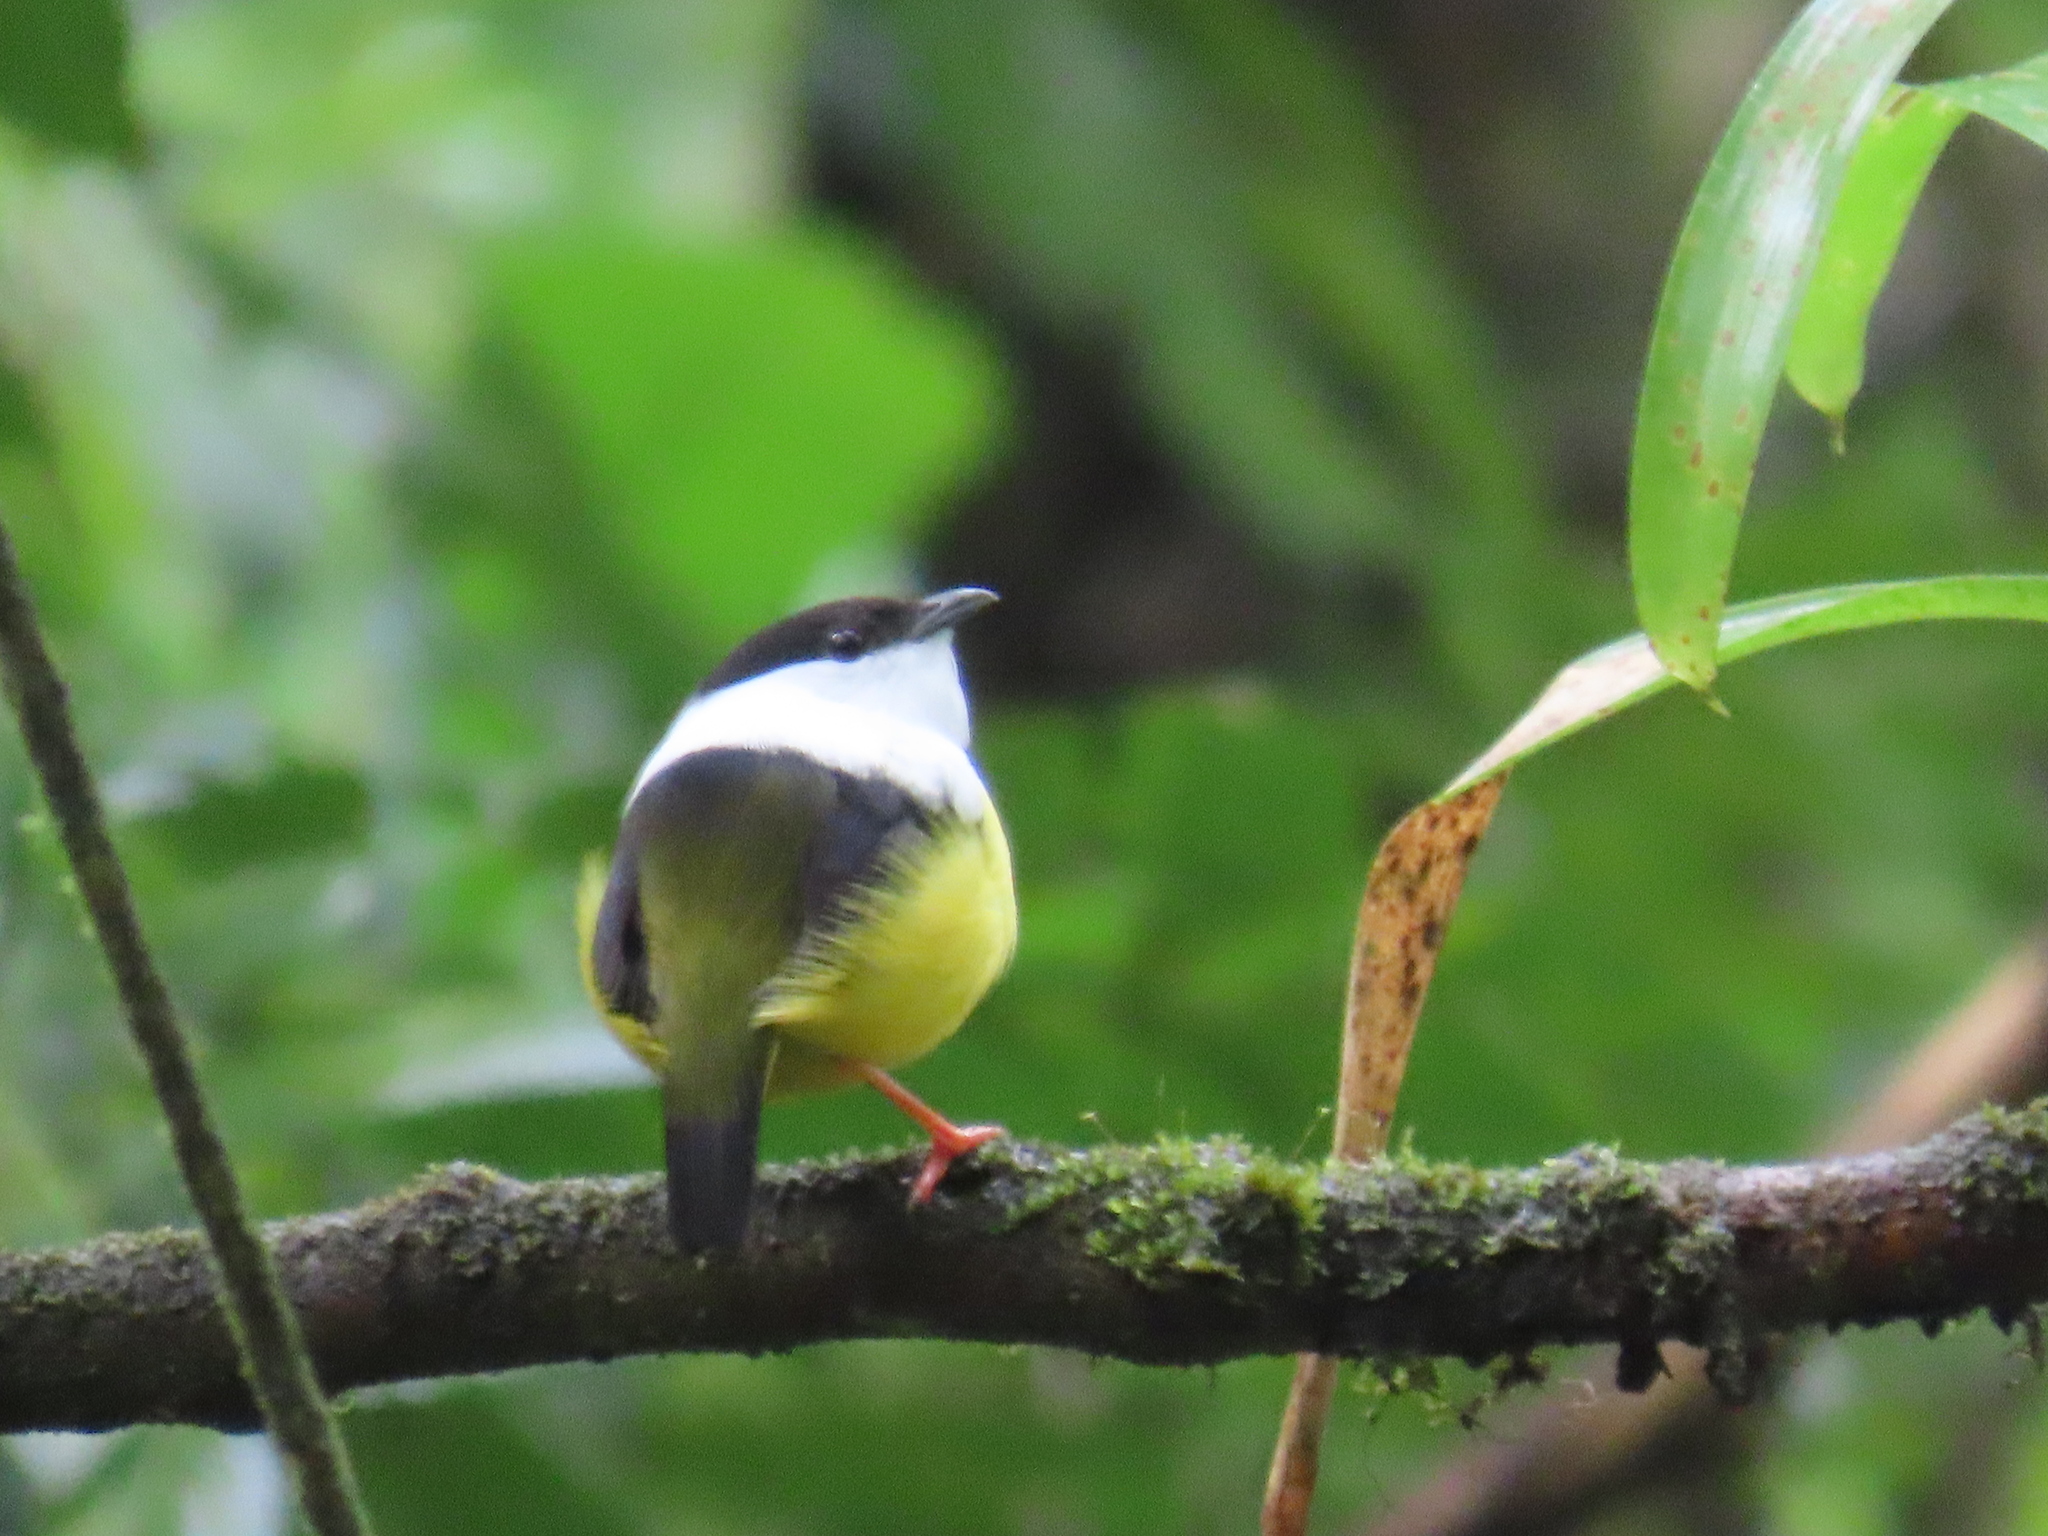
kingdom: Animalia
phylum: Chordata
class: Aves
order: Passeriformes
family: Pipridae
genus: Manacus
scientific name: Manacus candei
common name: White-collared manakin
